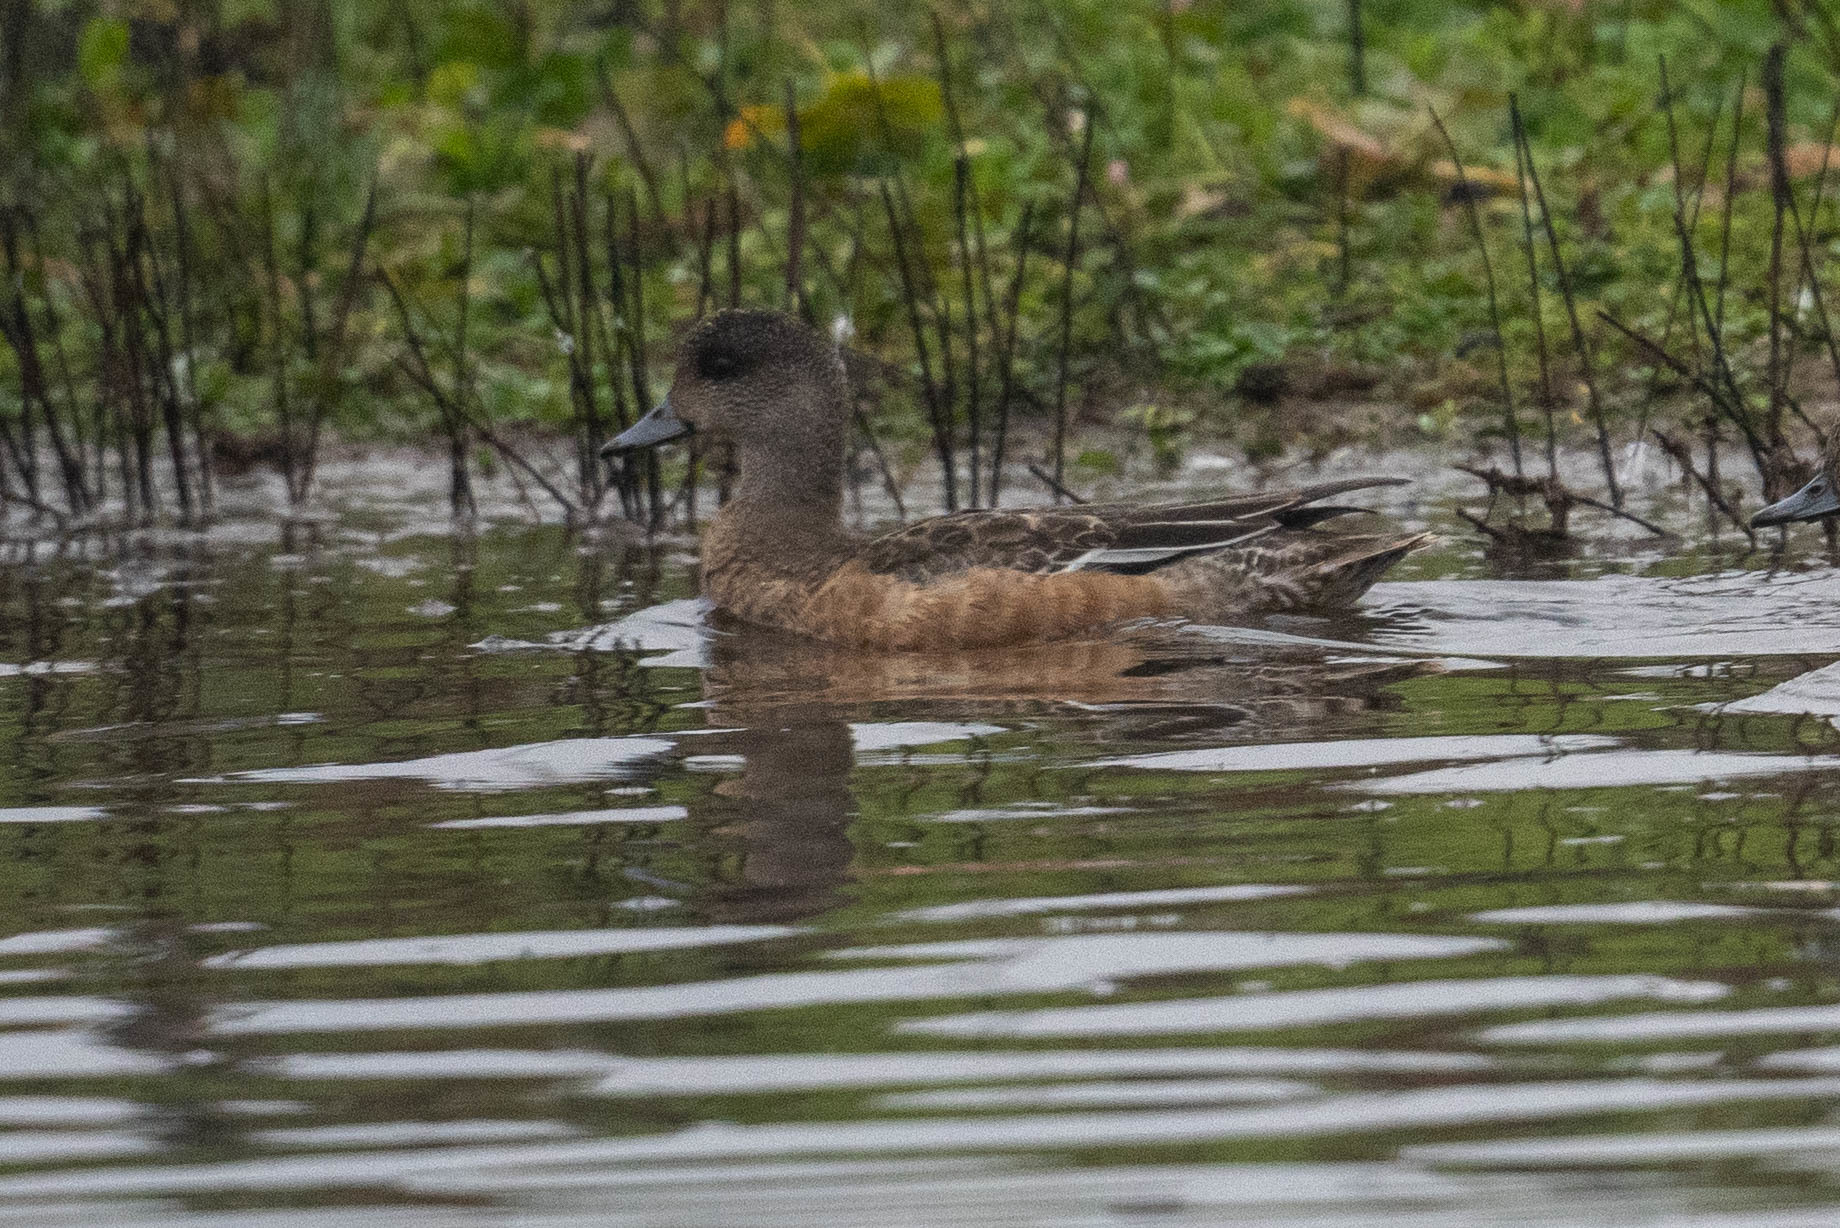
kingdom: Animalia
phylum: Chordata
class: Aves
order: Anseriformes
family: Anatidae
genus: Mareca
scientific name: Mareca americana
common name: American wigeon
